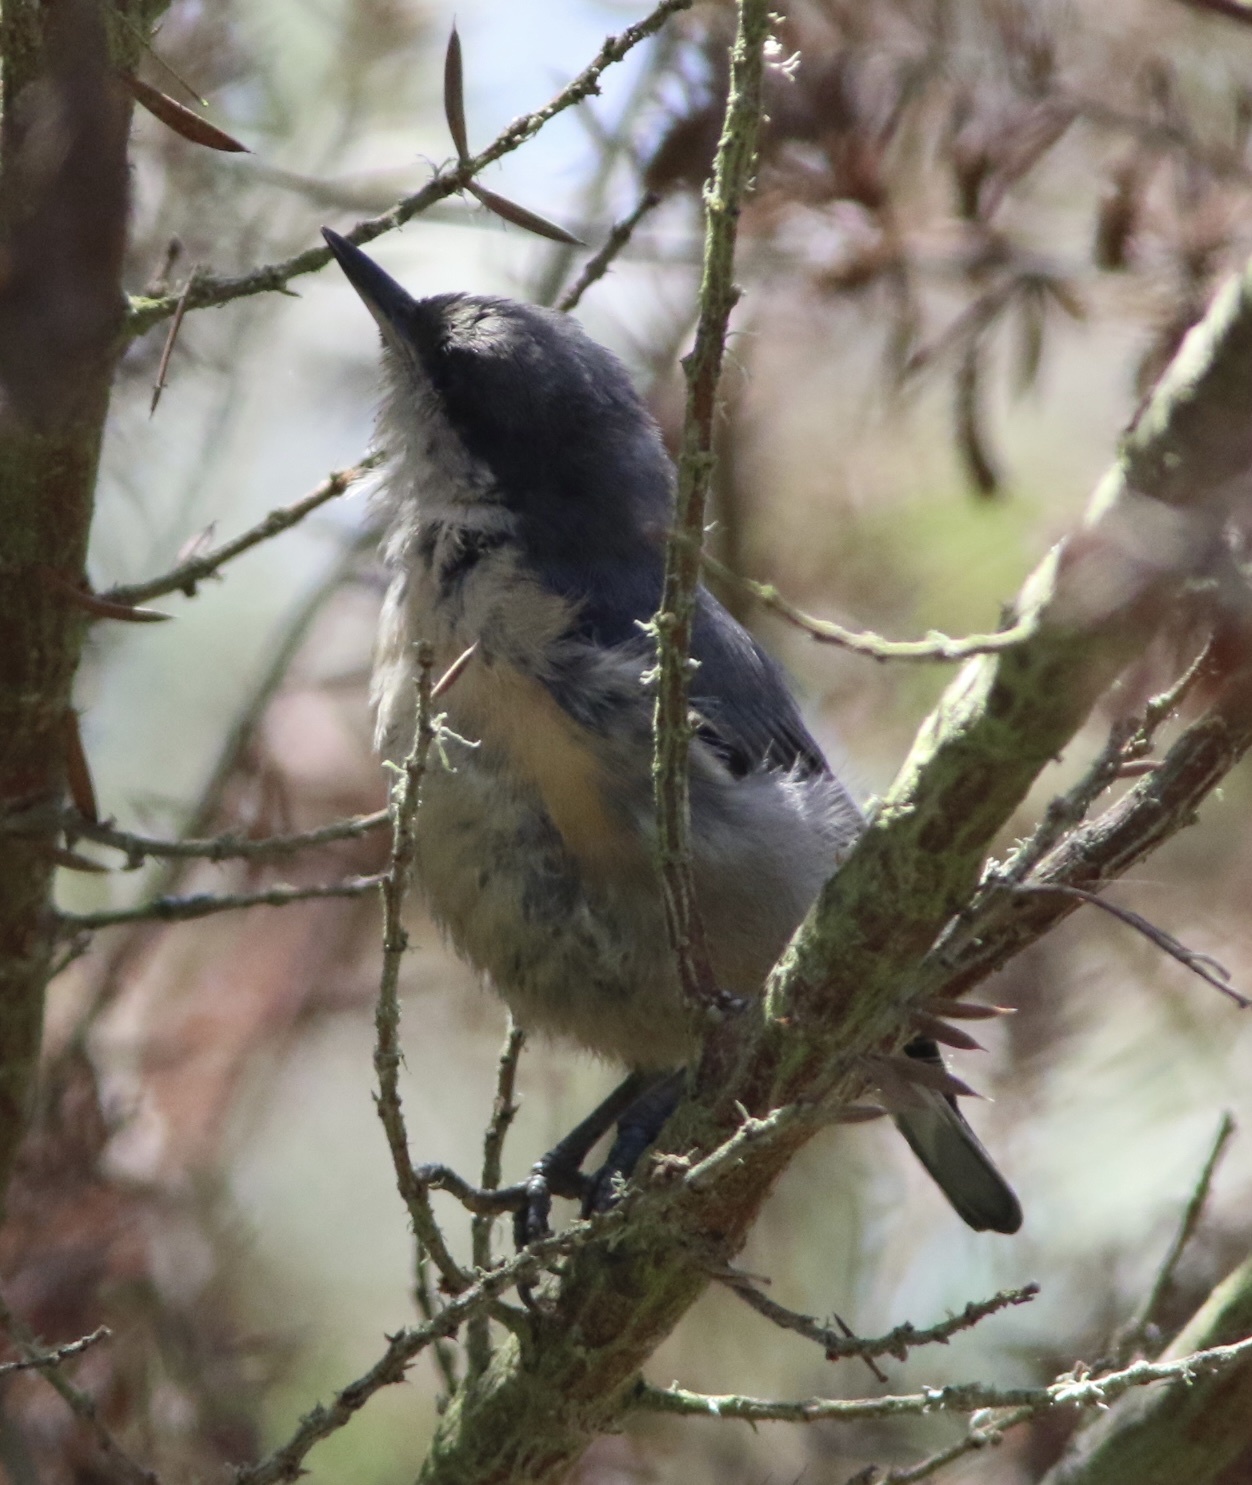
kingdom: Animalia
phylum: Chordata
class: Aves
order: Passeriformes
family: Sittidae
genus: Sitta
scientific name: Sitta pygmaea
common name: Pygmy nuthatch
